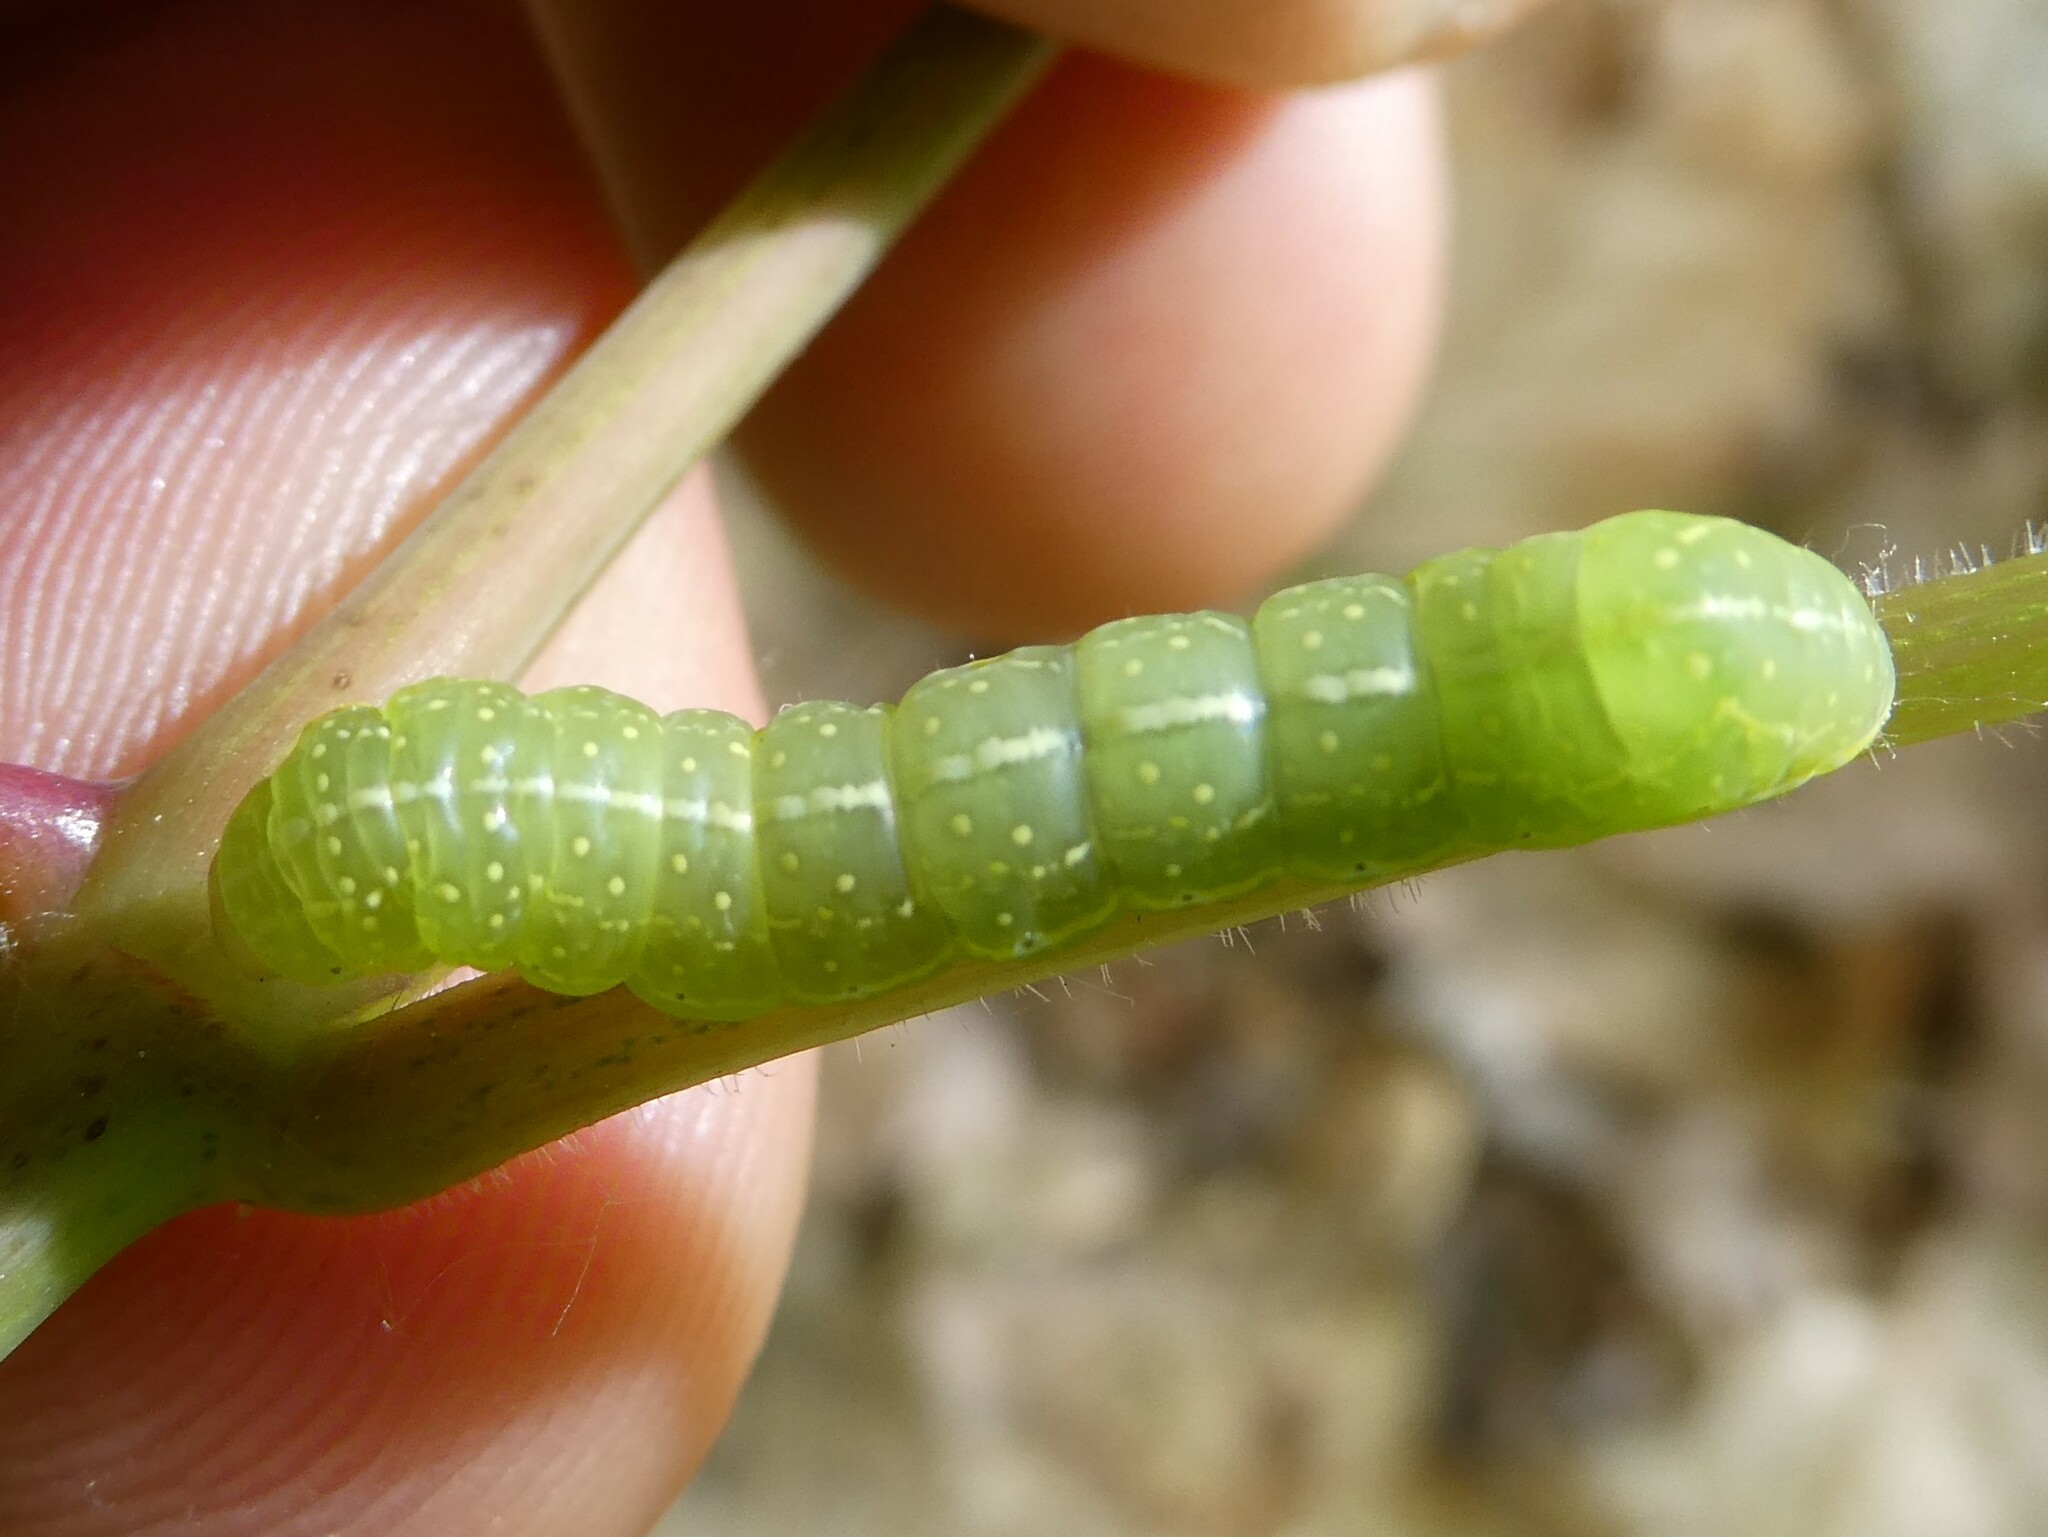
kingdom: Animalia
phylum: Arthropoda
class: Insecta
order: Lepidoptera
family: Noctuidae
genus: Amphipyra
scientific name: Amphipyra pyramidoides
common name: American copper underwing
